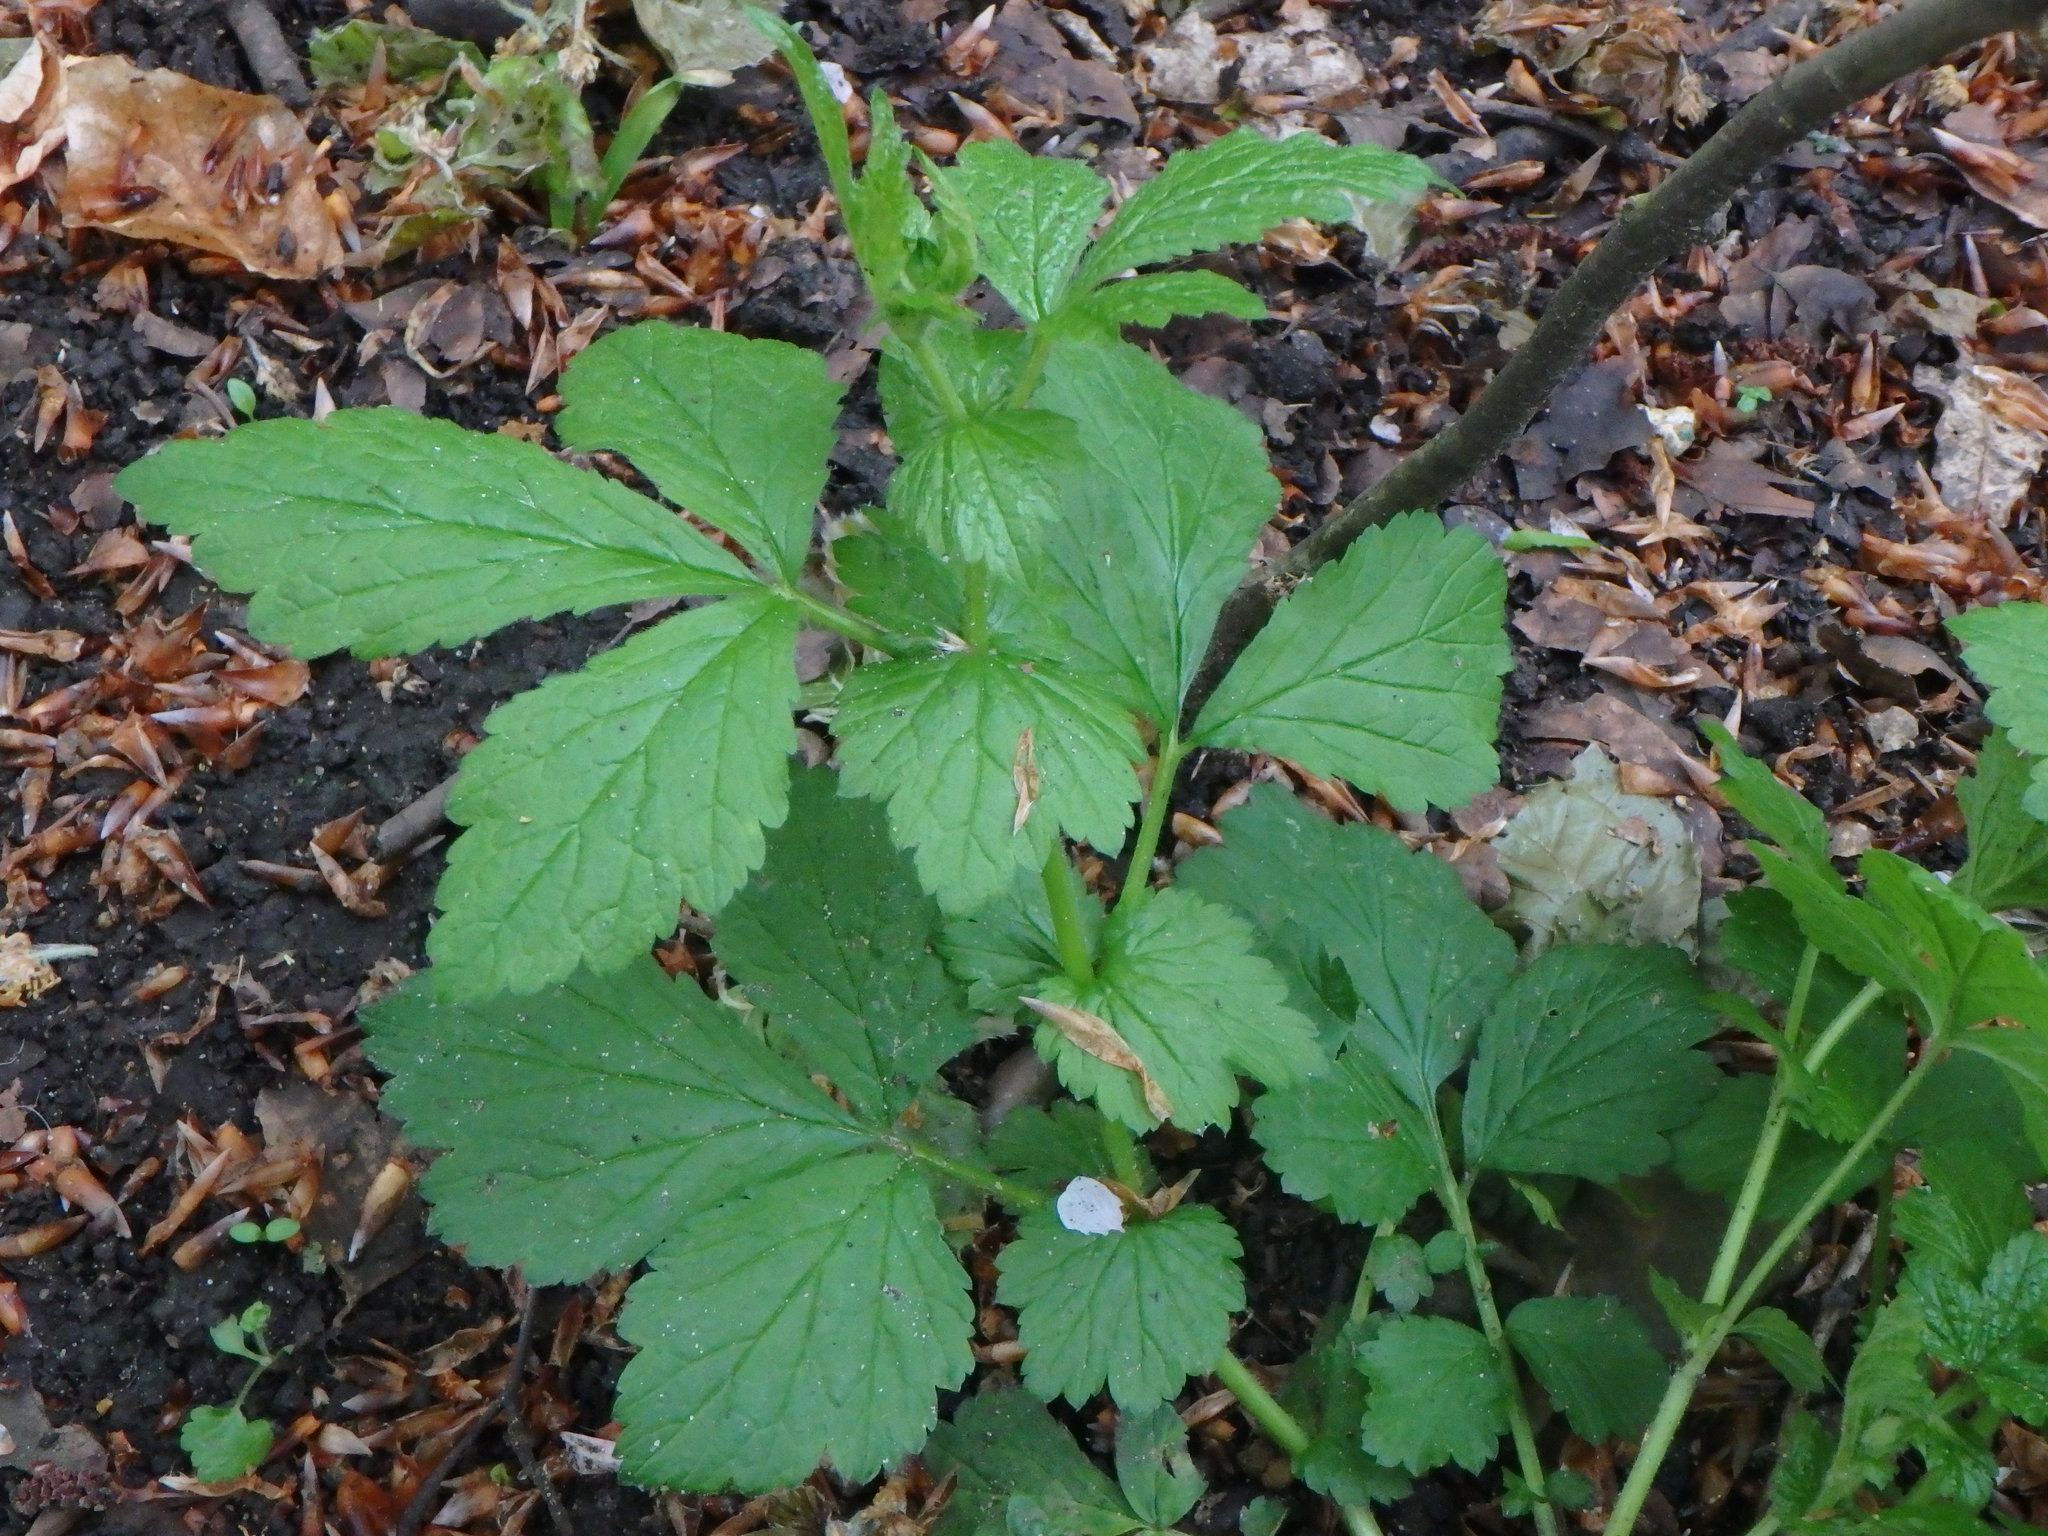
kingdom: Plantae
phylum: Tracheophyta
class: Magnoliopsida
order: Rosales
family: Rosaceae
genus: Geum
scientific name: Geum urbanum
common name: Wood avens
